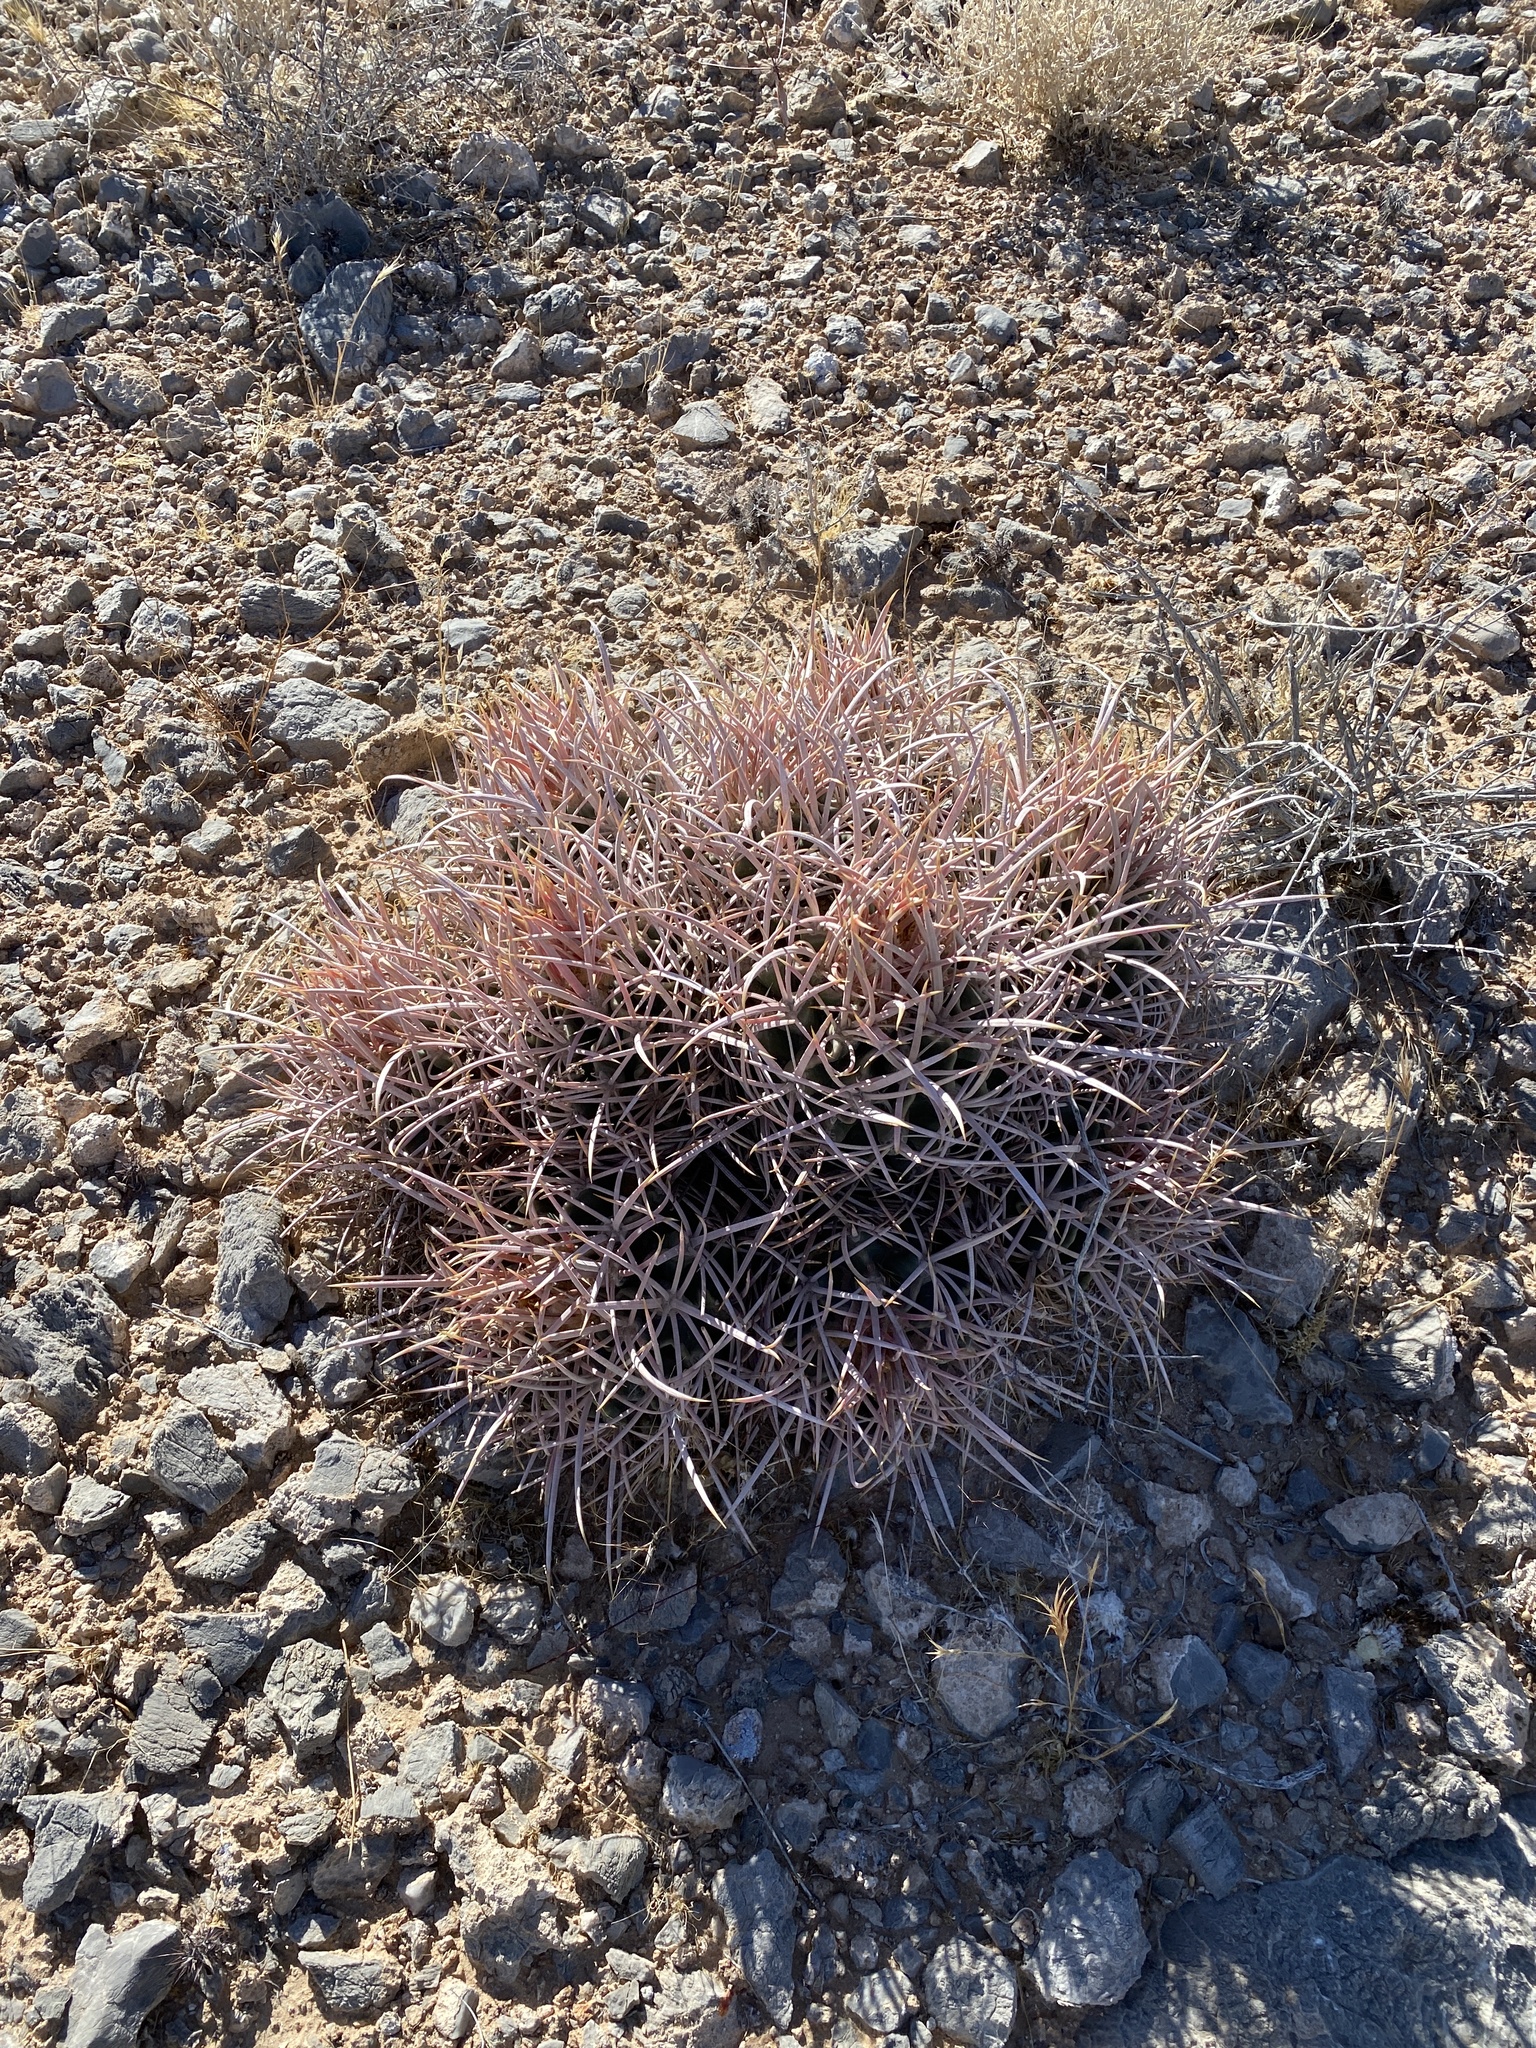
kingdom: Plantae
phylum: Tracheophyta
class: Magnoliopsida
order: Caryophyllales
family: Cactaceae
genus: Echinocactus
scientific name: Echinocactus polycephalus
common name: Cottontop cactus
